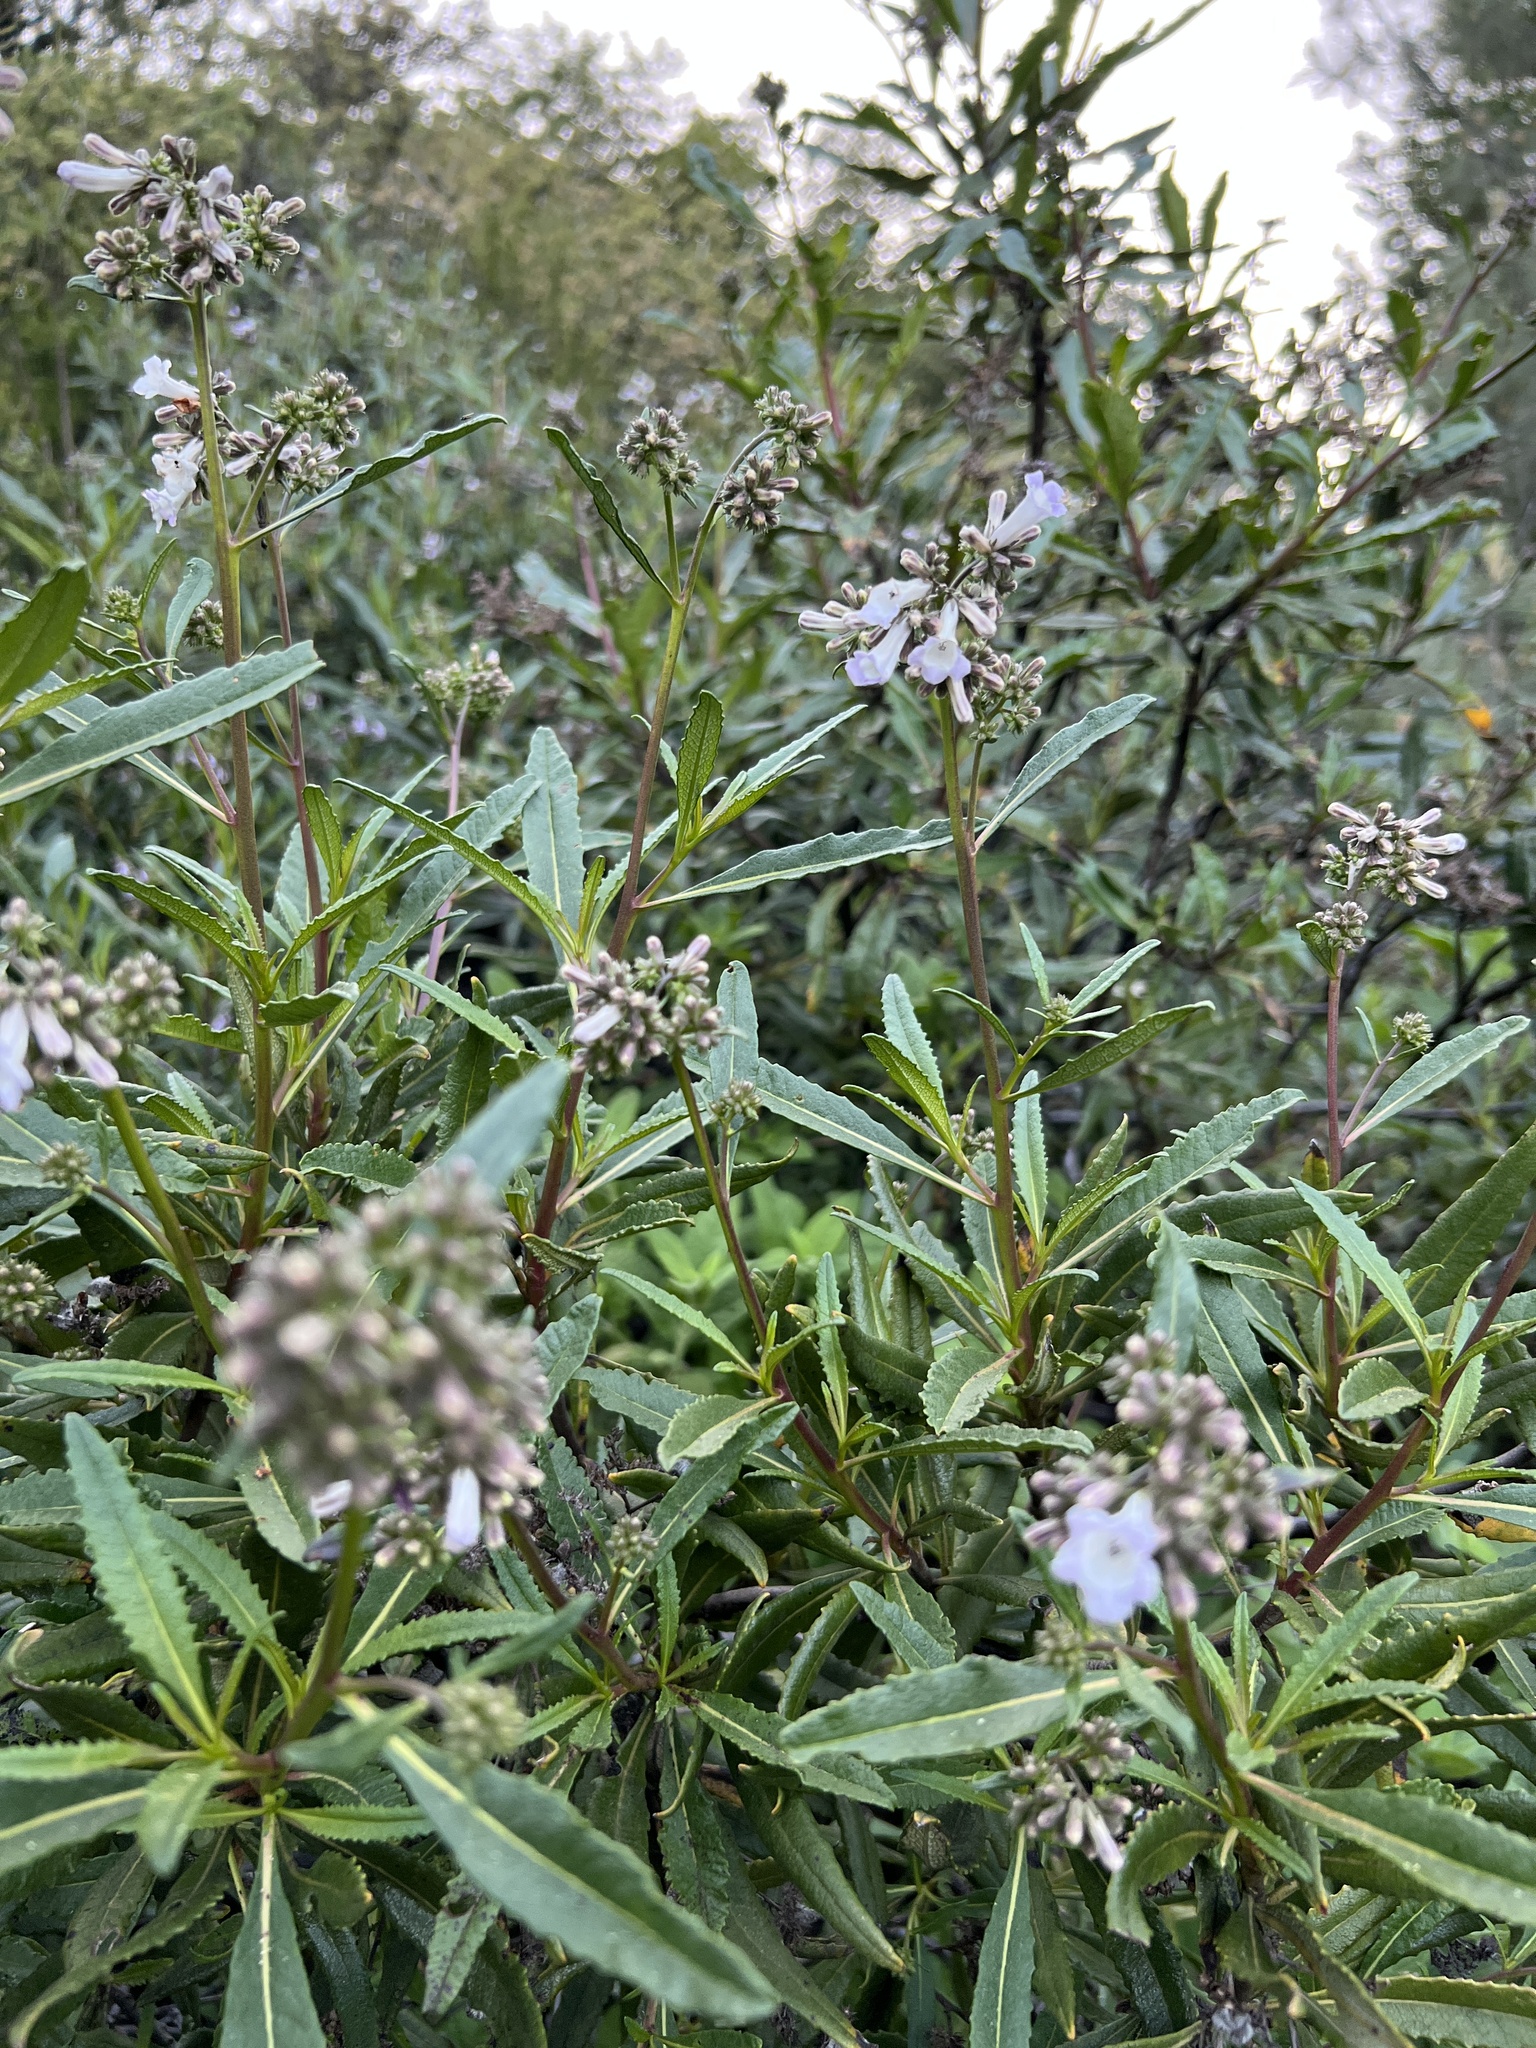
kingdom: Plantae
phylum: Tracheophyta
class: Magnoliopsida
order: Boraginales
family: Namaceae
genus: Eriodictyon
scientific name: Eriodictyon californicum
